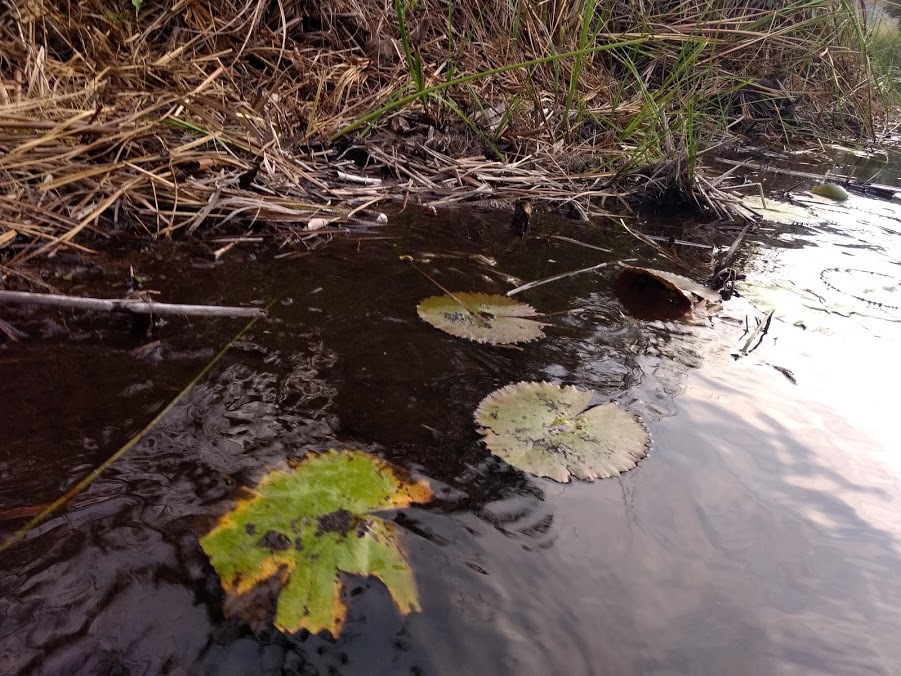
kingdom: Plantae
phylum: Tracheophyta
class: Magnoliopsida
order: Nymphaeales
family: Nymphaeaceae
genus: Nymphaea
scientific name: Nymphaea ampla
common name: Dotleaf waterlily
